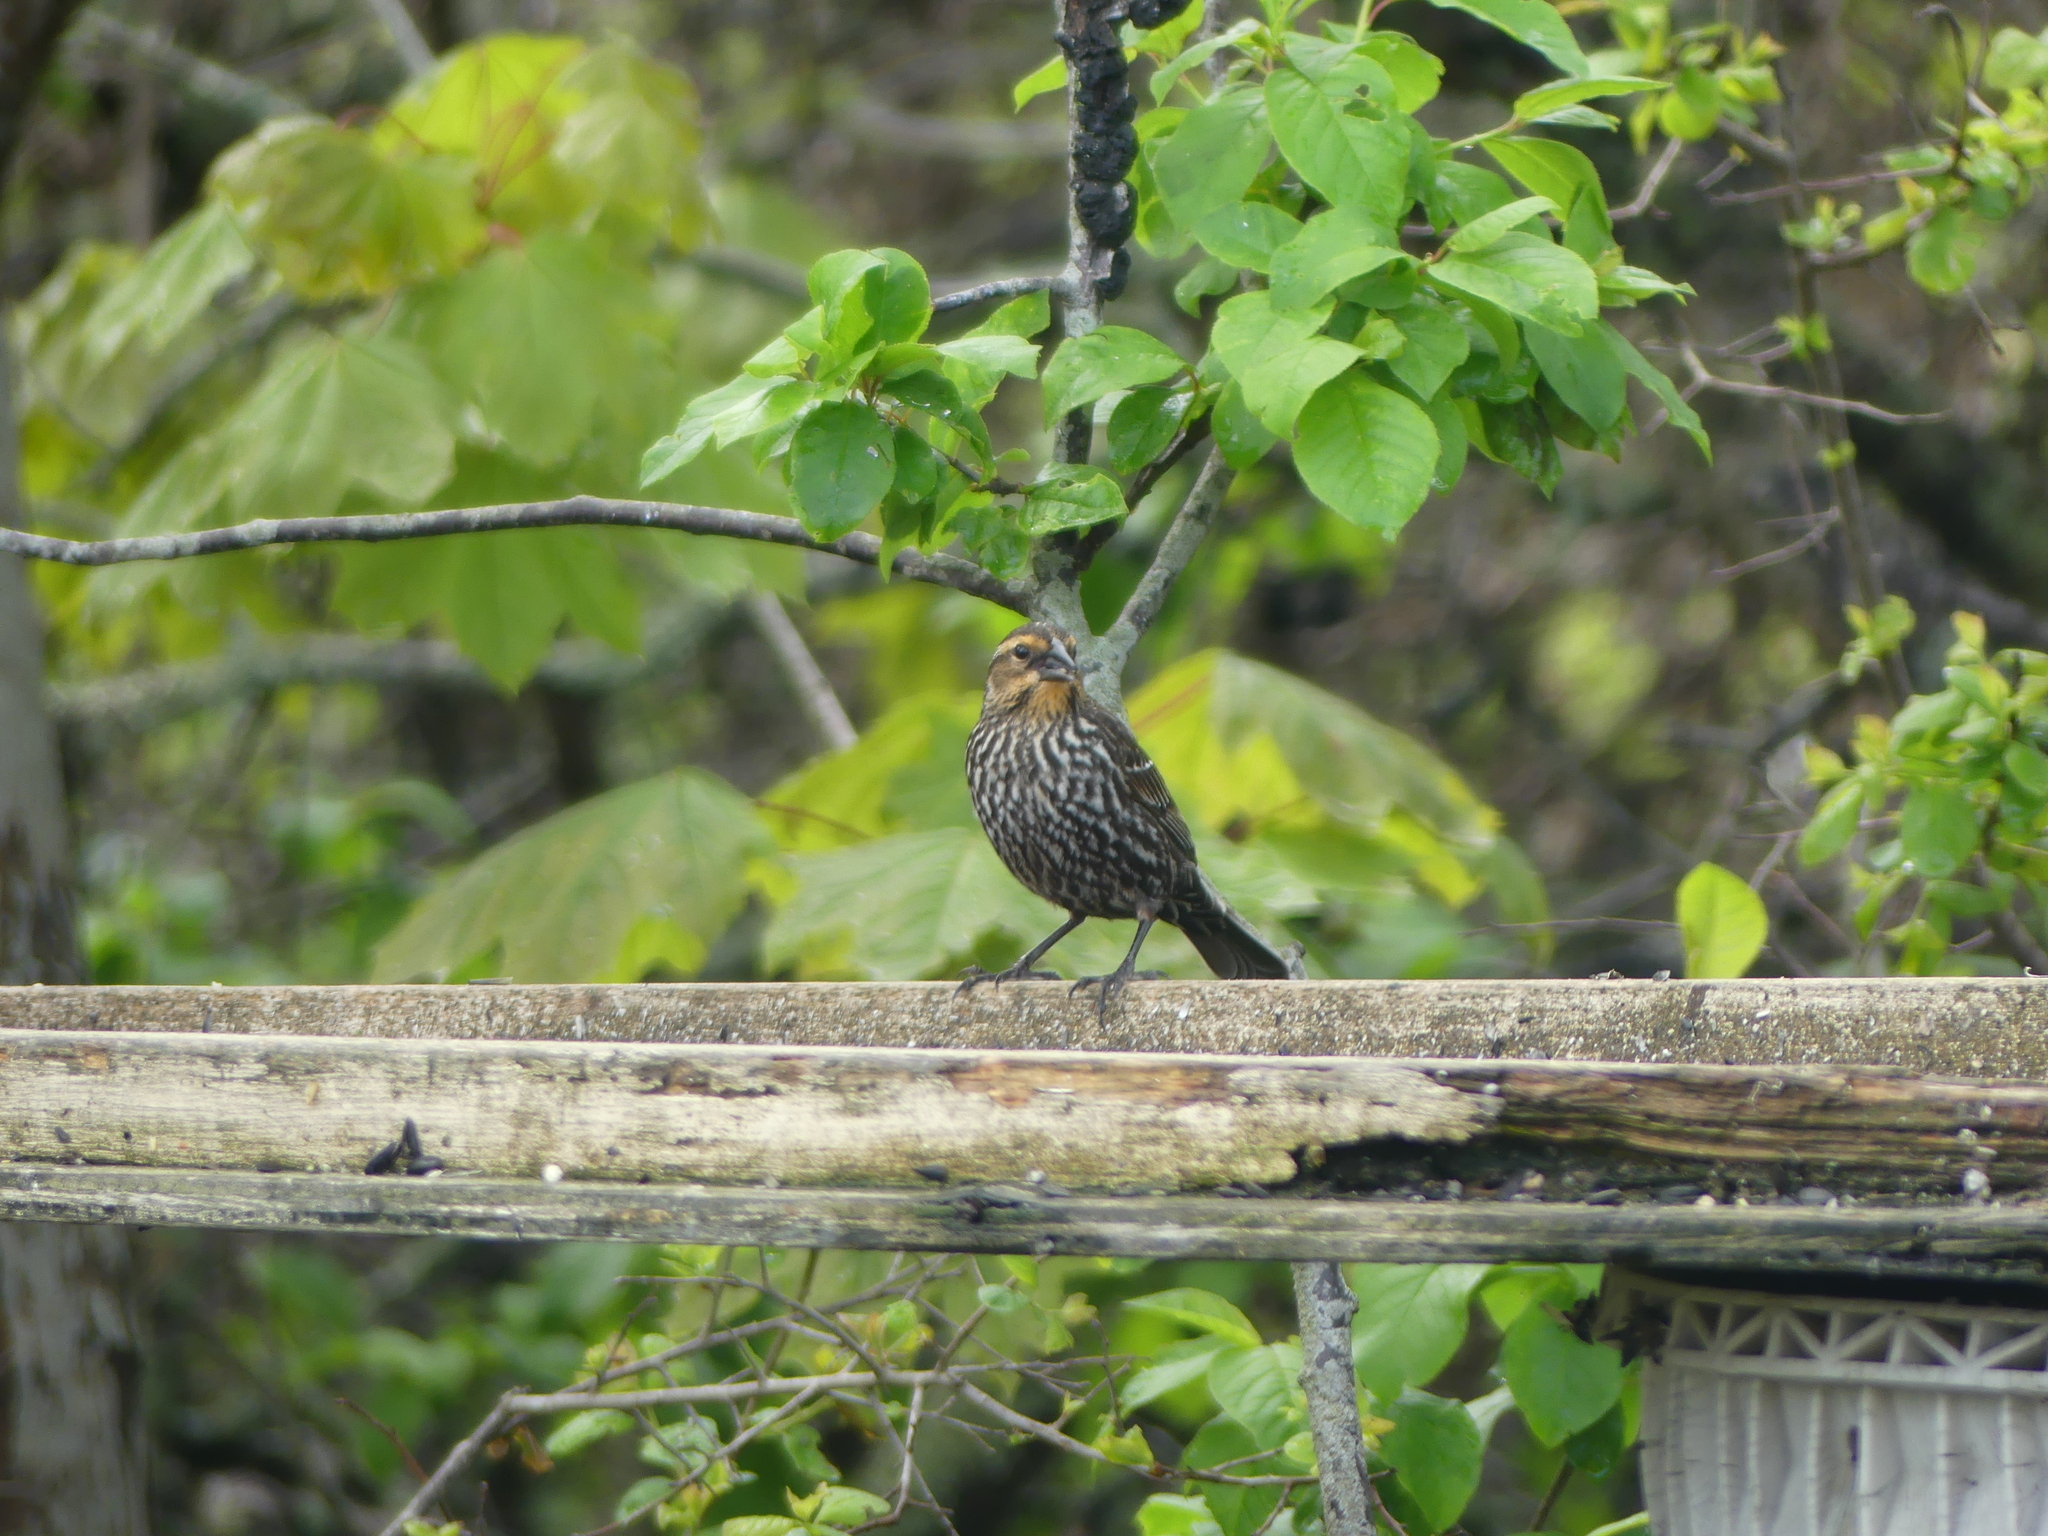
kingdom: Animalia
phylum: Chordata
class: Aves
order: Passeriformes
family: Icteridae
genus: Agelaius
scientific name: Agelaius phoeniceus
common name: Red-winged blackbird
